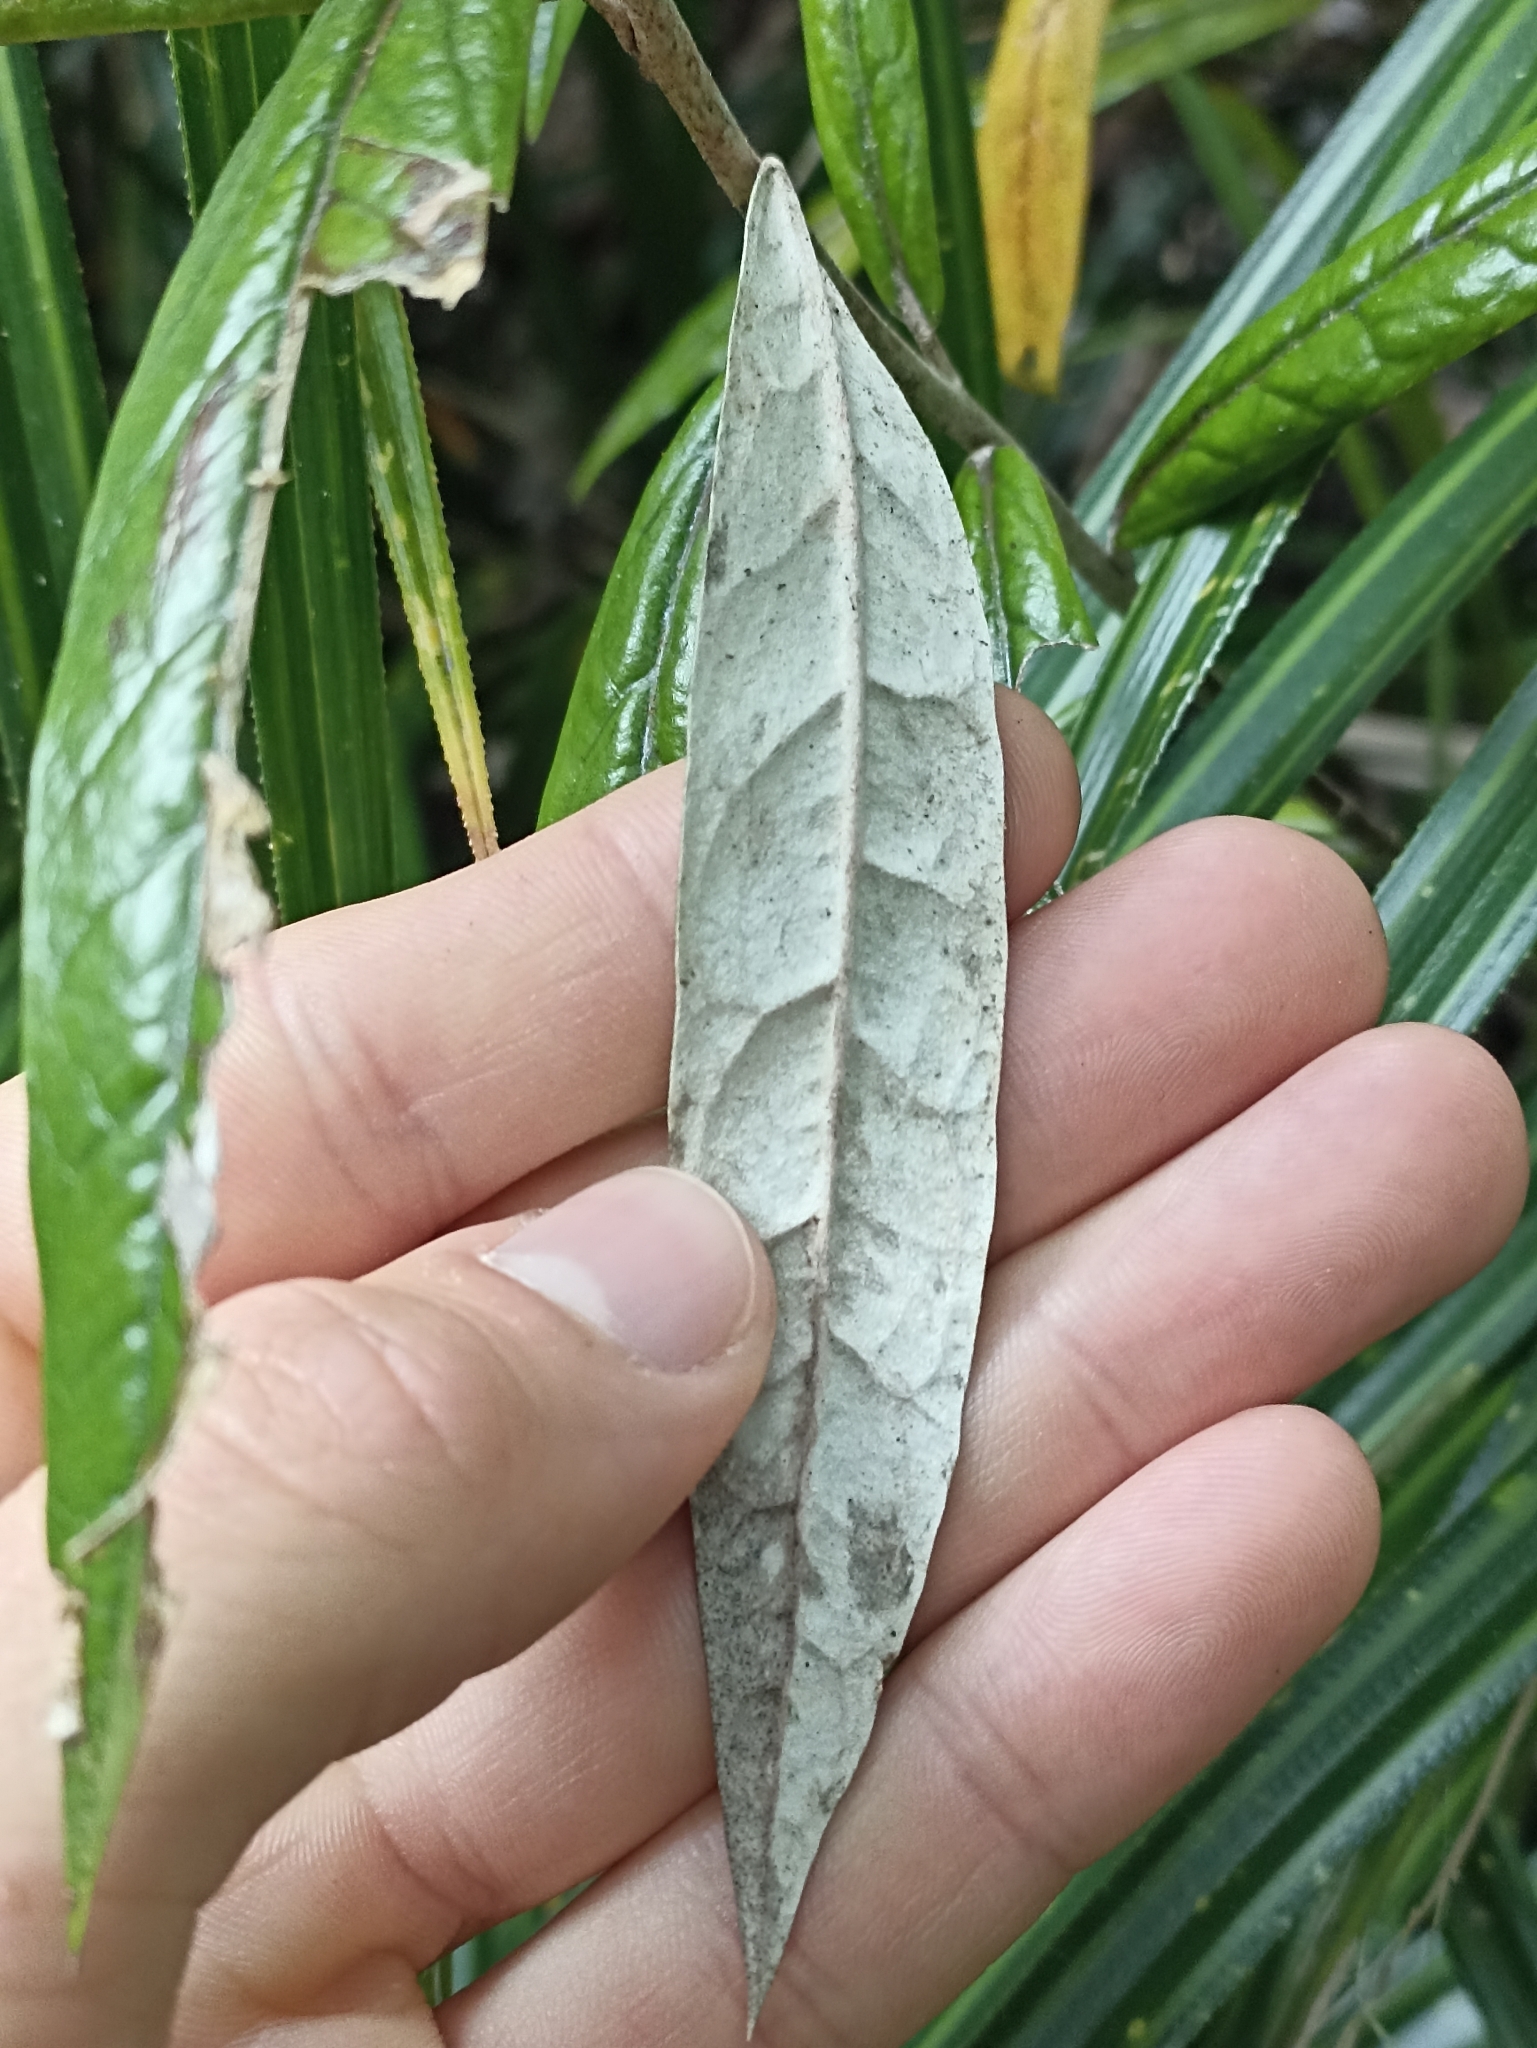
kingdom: Plantae
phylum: Tracheophyta
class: Magnoliopsida
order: Asterales
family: Argophyllaceae
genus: Corokia
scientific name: Corokia buddleioides
